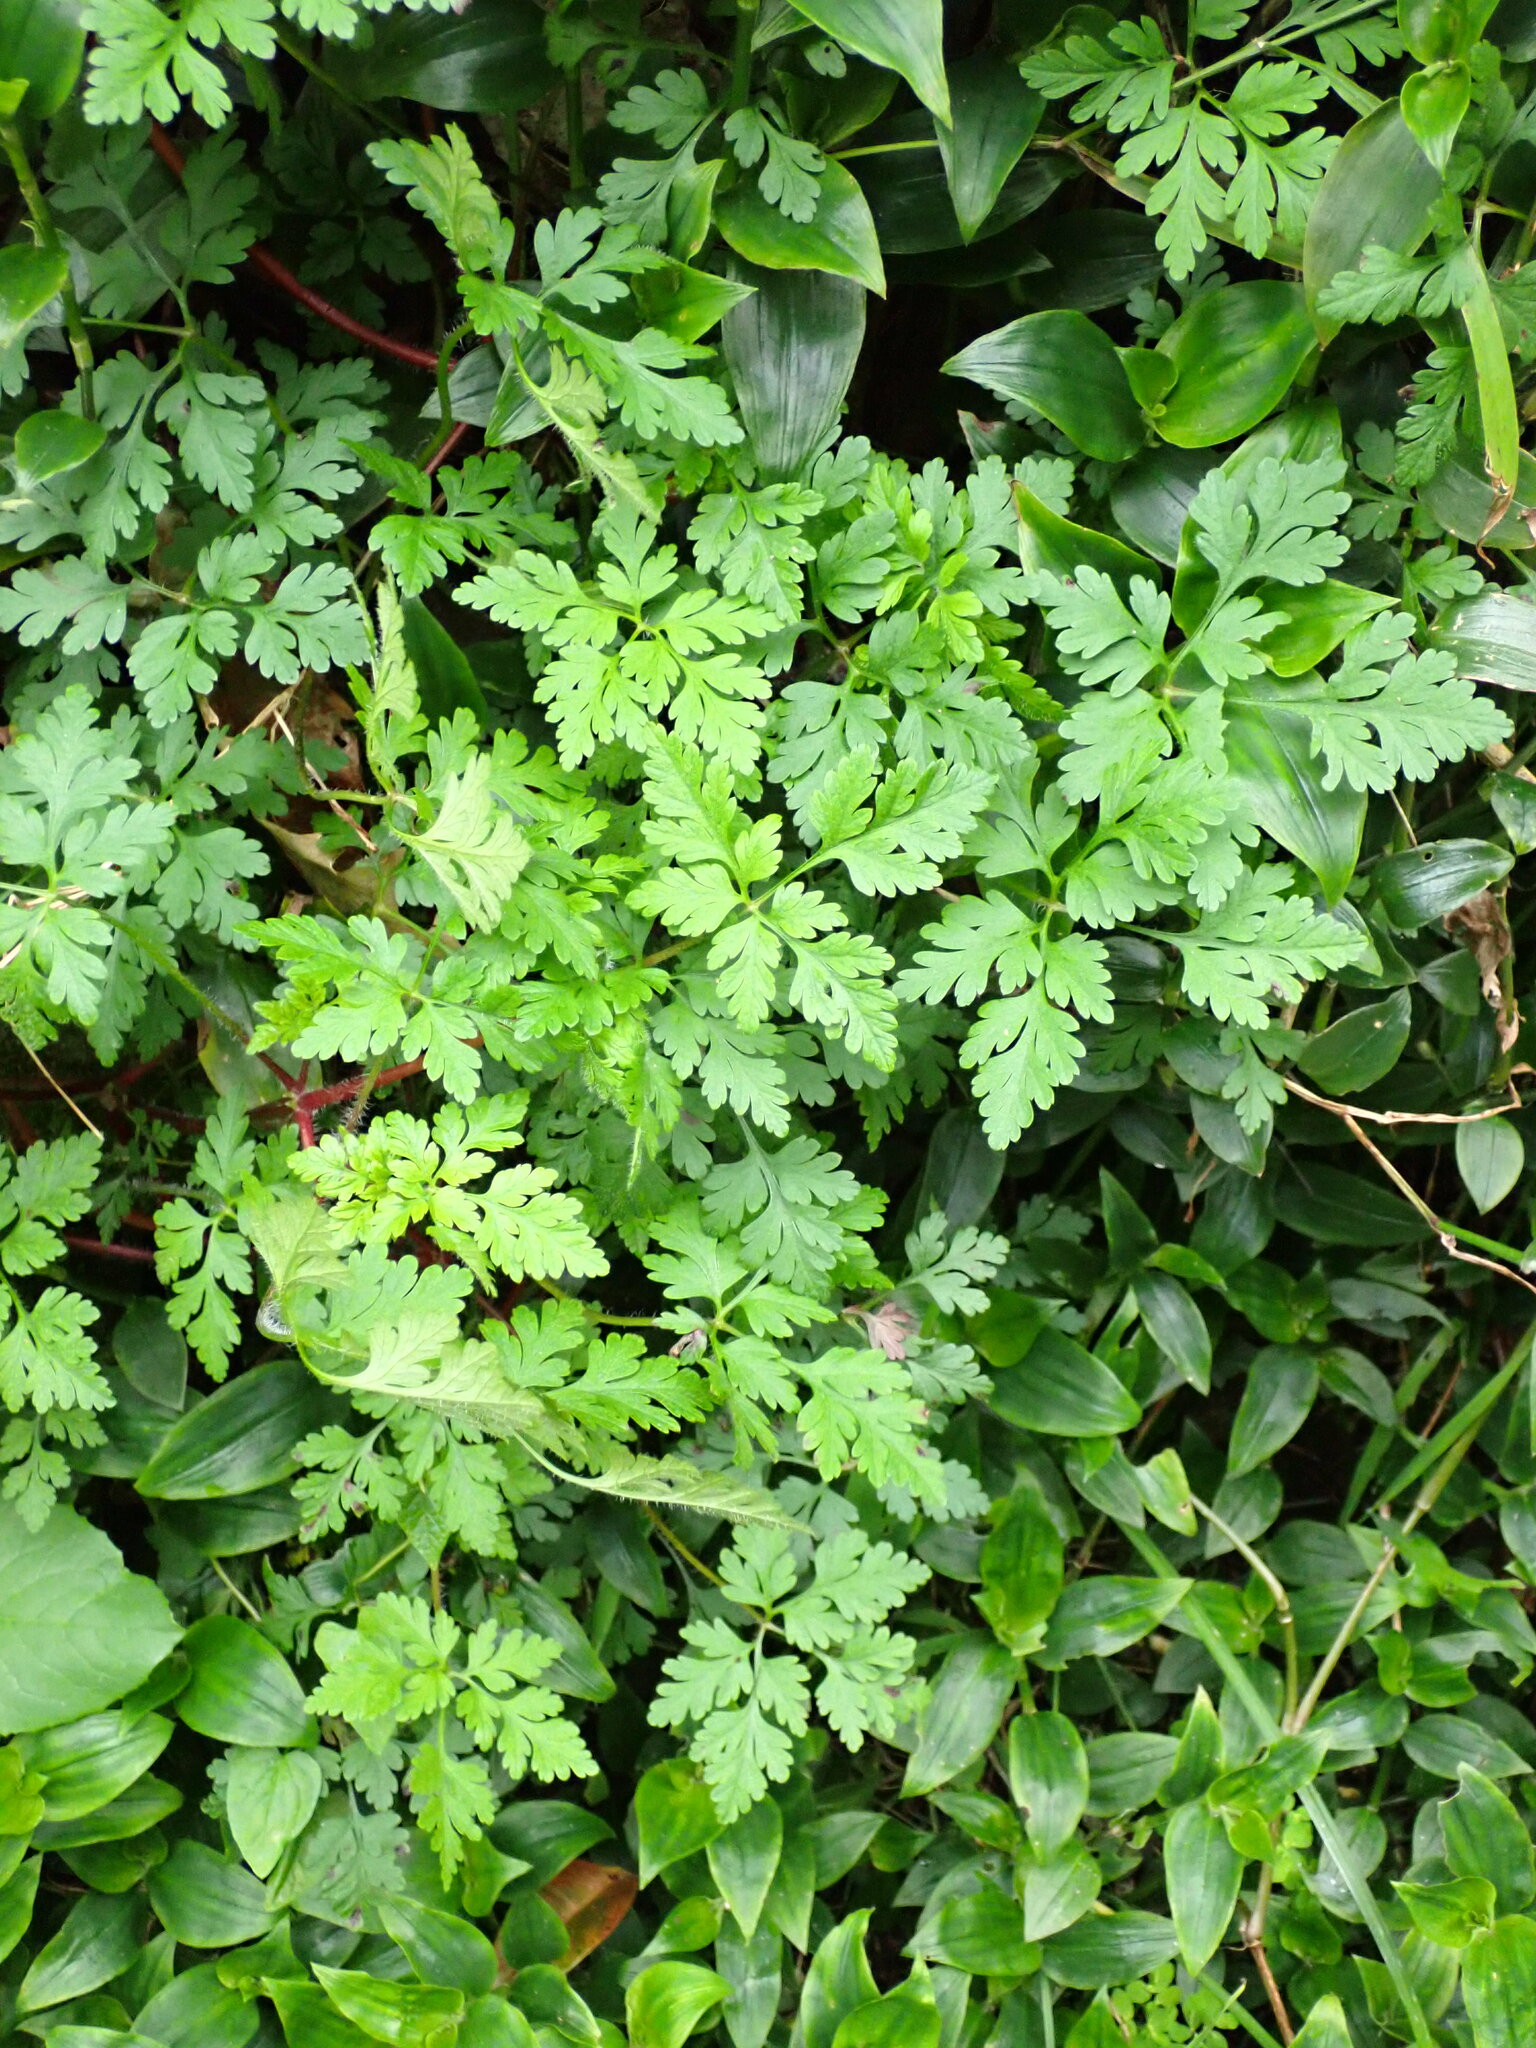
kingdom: Plantae
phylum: Tracheophyta
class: Magnoliopsida
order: Geraniales
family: Geraniaceae
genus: Geranium
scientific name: Geranium robertianum
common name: Herb-robert
